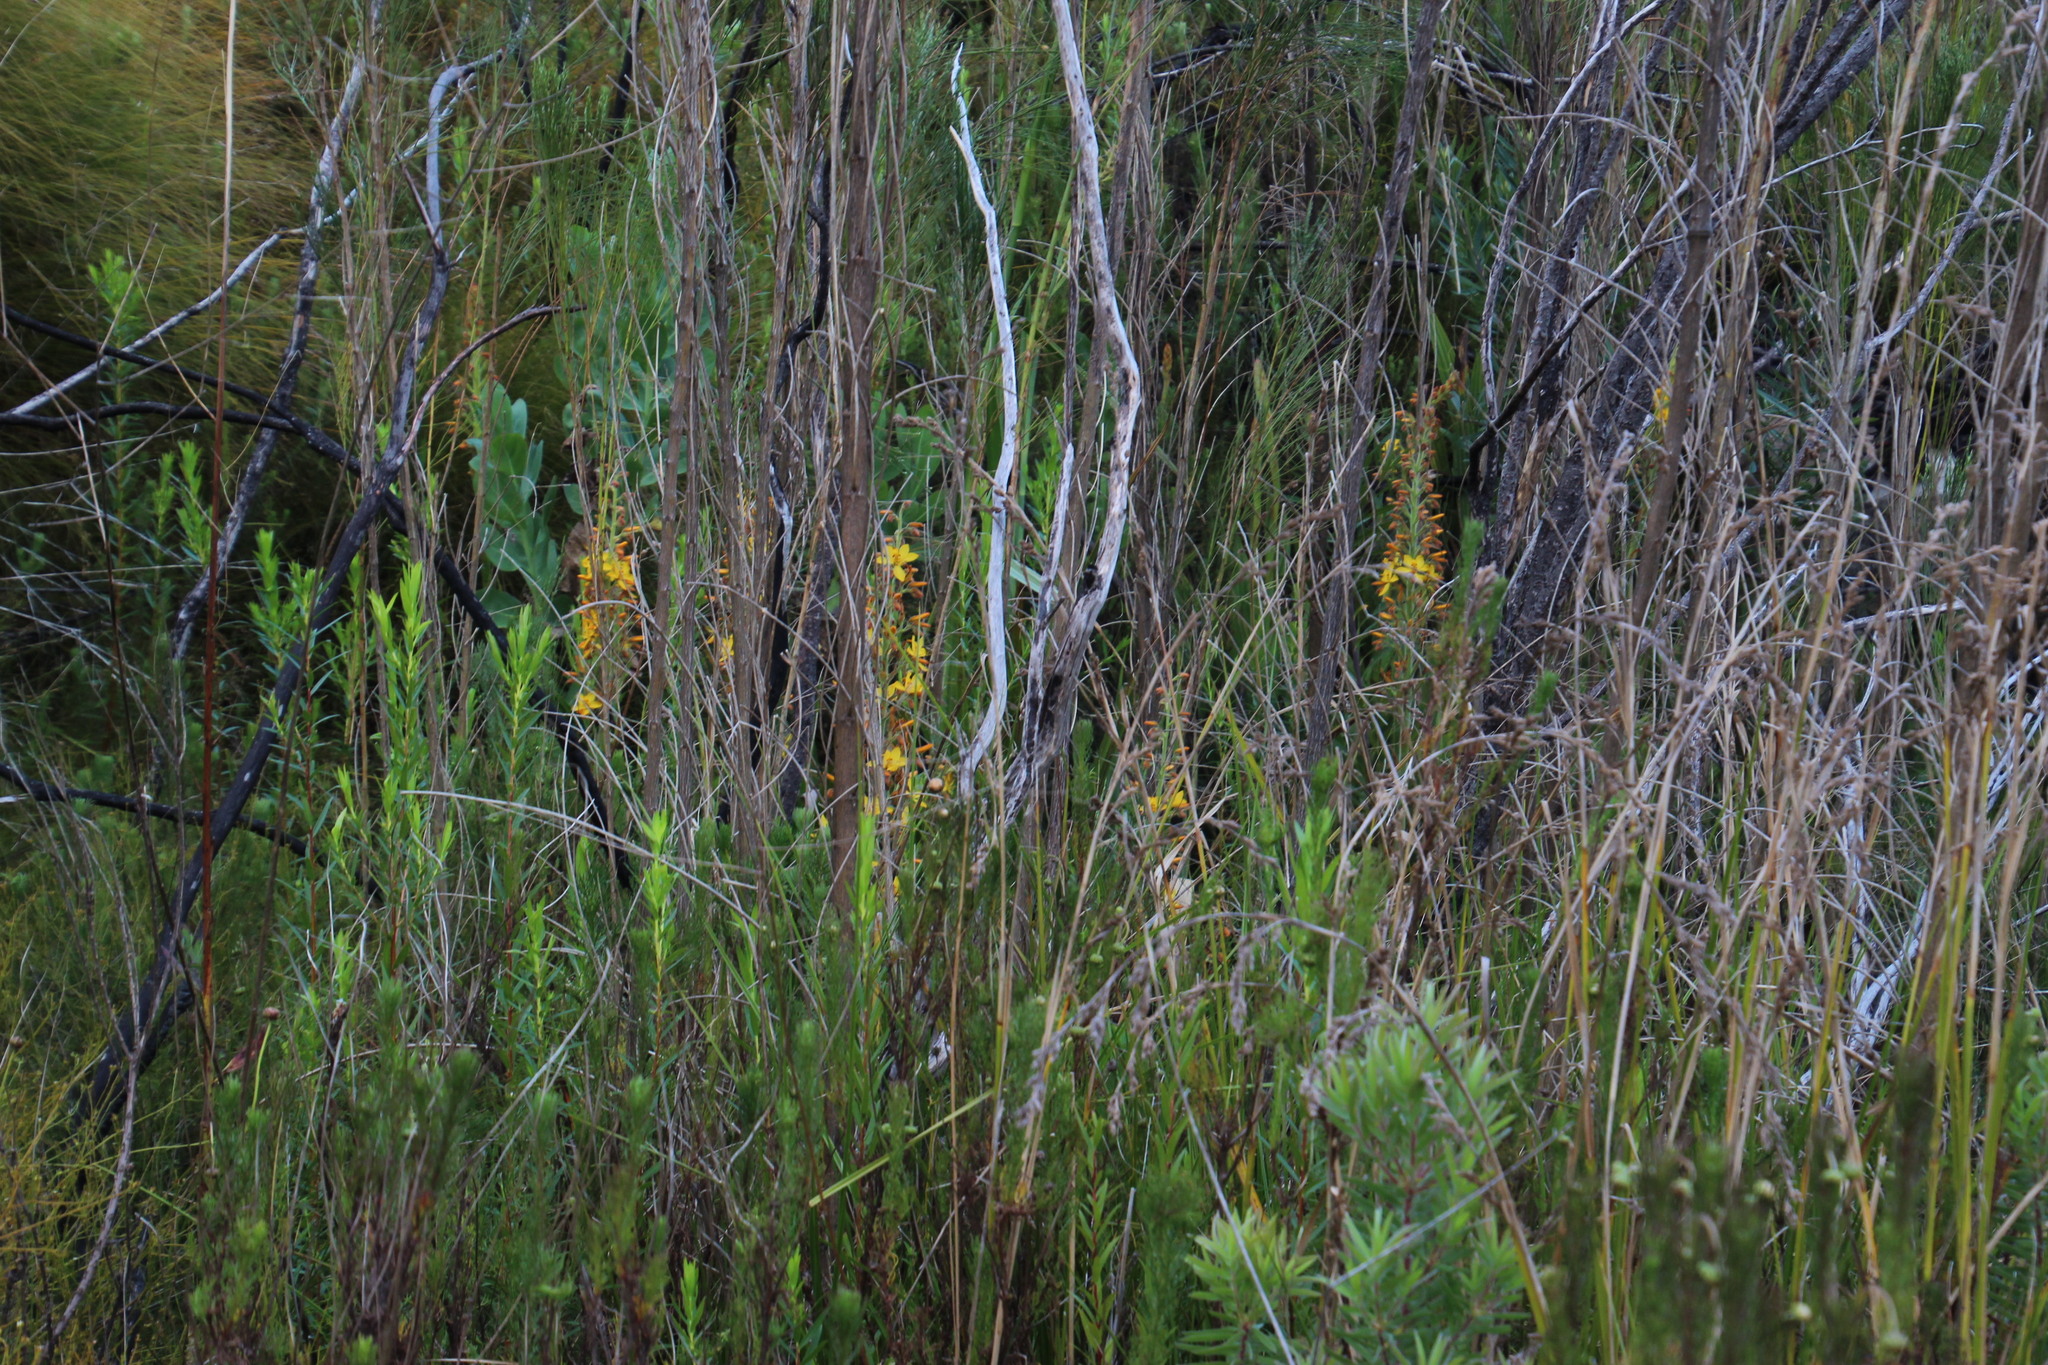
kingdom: Plantae
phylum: Tracheophyta
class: Liliopsida
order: Commelinales
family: Haemodoraceae
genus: Wachendorfia
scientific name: Wachendorfia thyrsiflora
